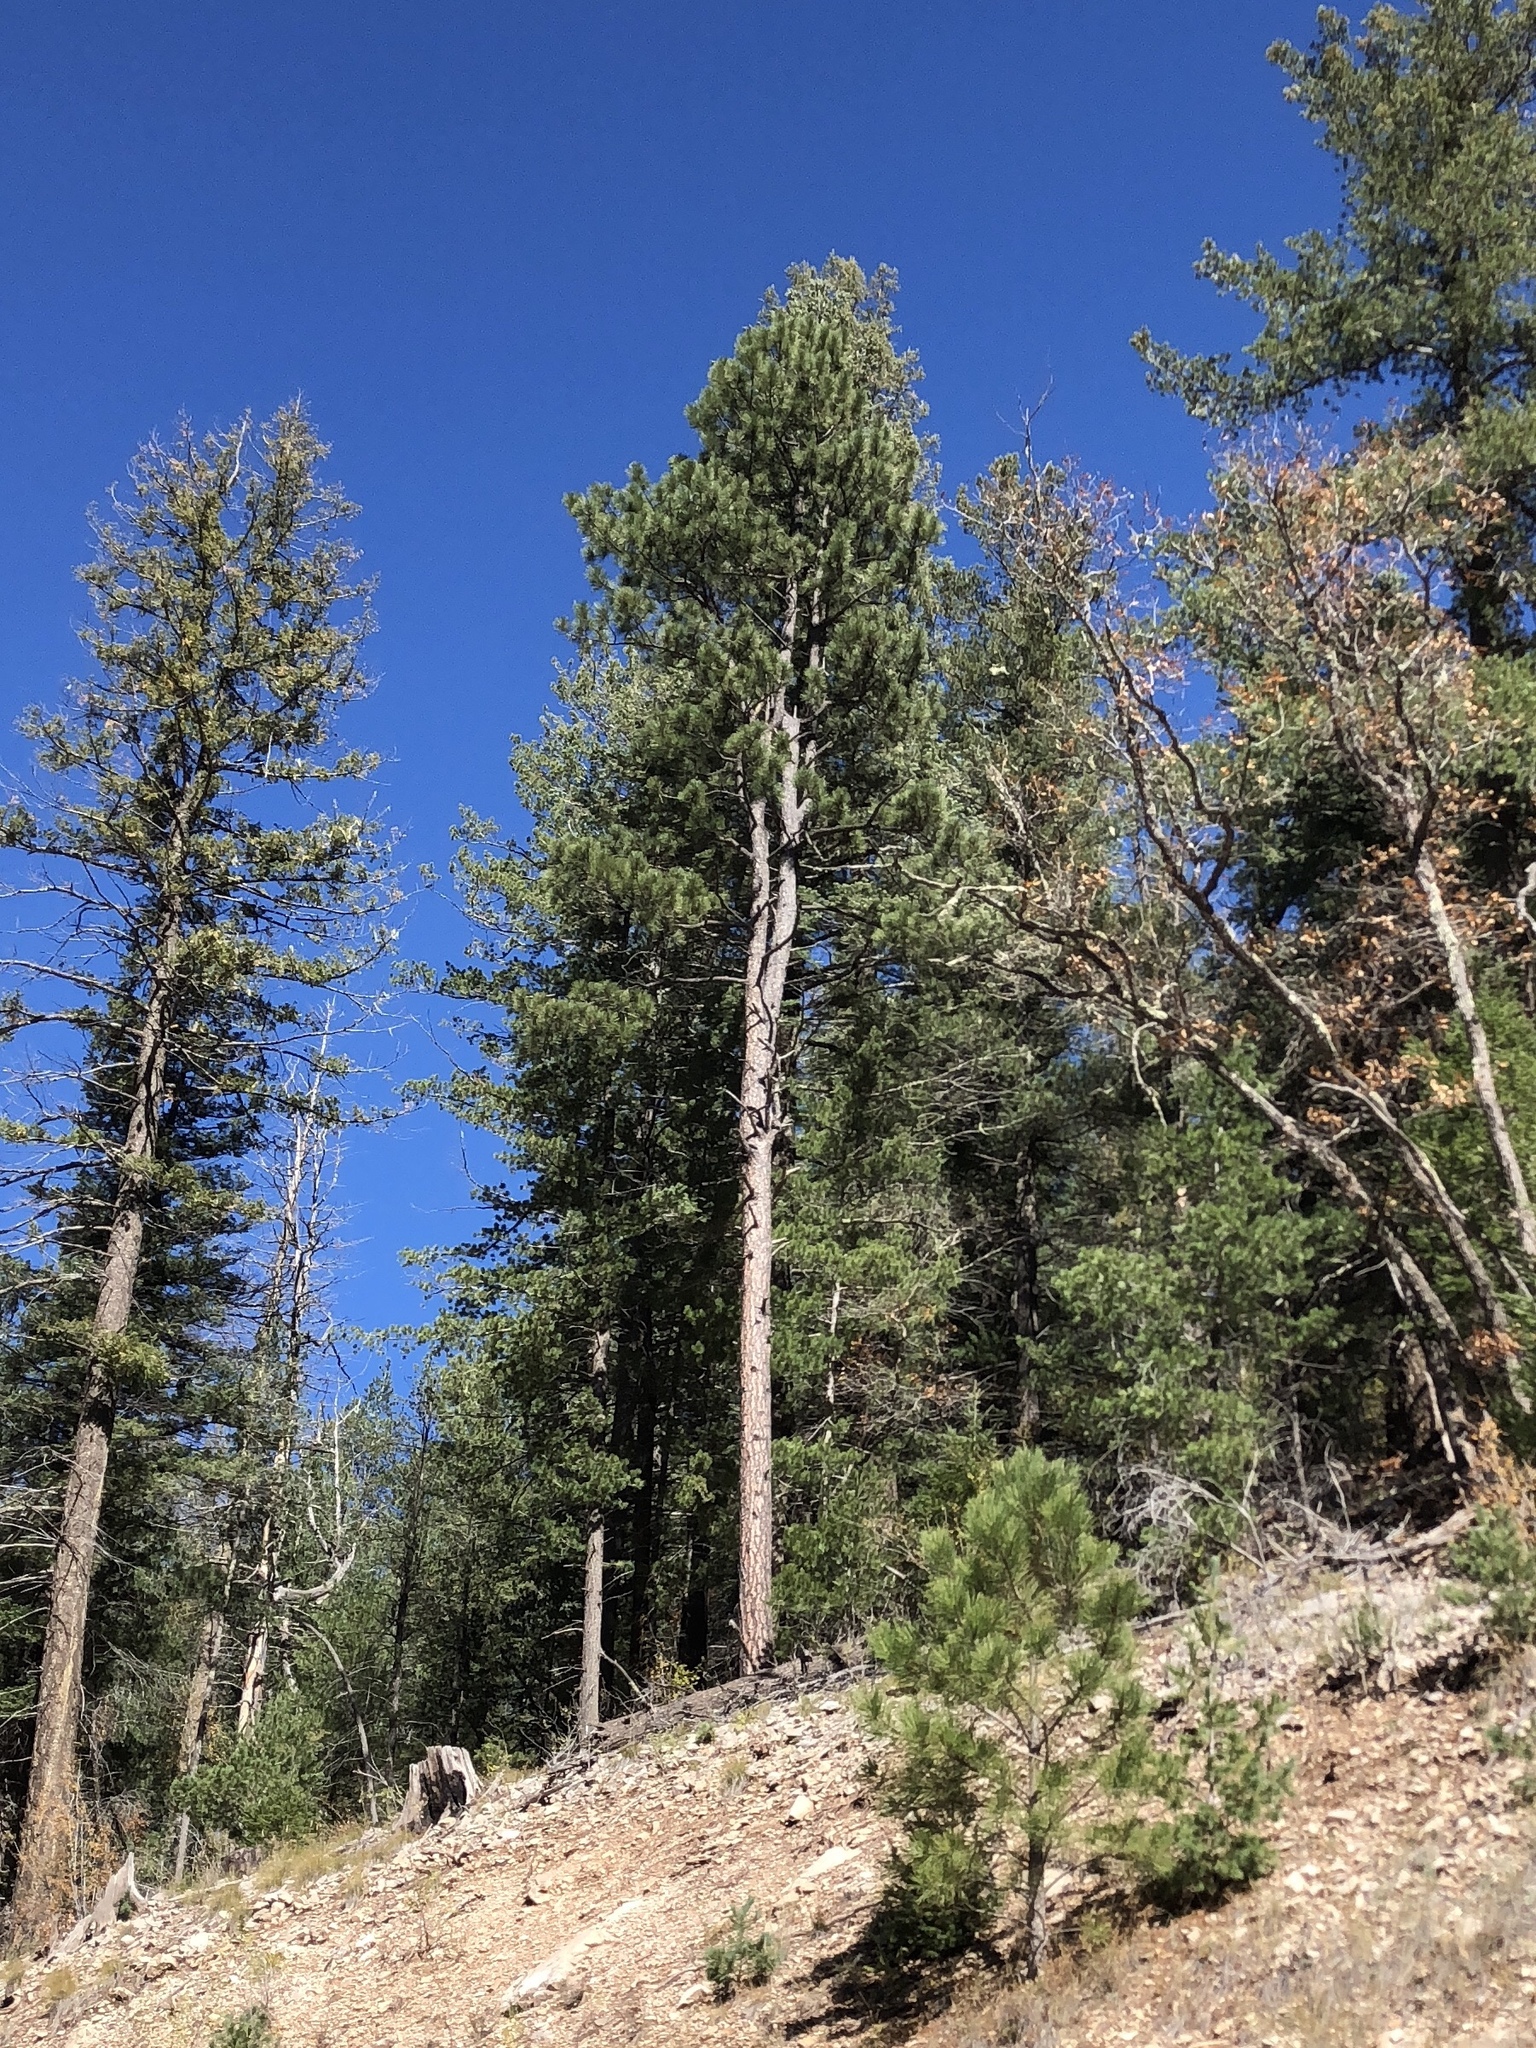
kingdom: Plantae
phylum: Tracheophyta
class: Pinopsida
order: Pinales
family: Pinaceae
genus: Pinus
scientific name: Pinus ponderosa
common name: Western yellow-pine
